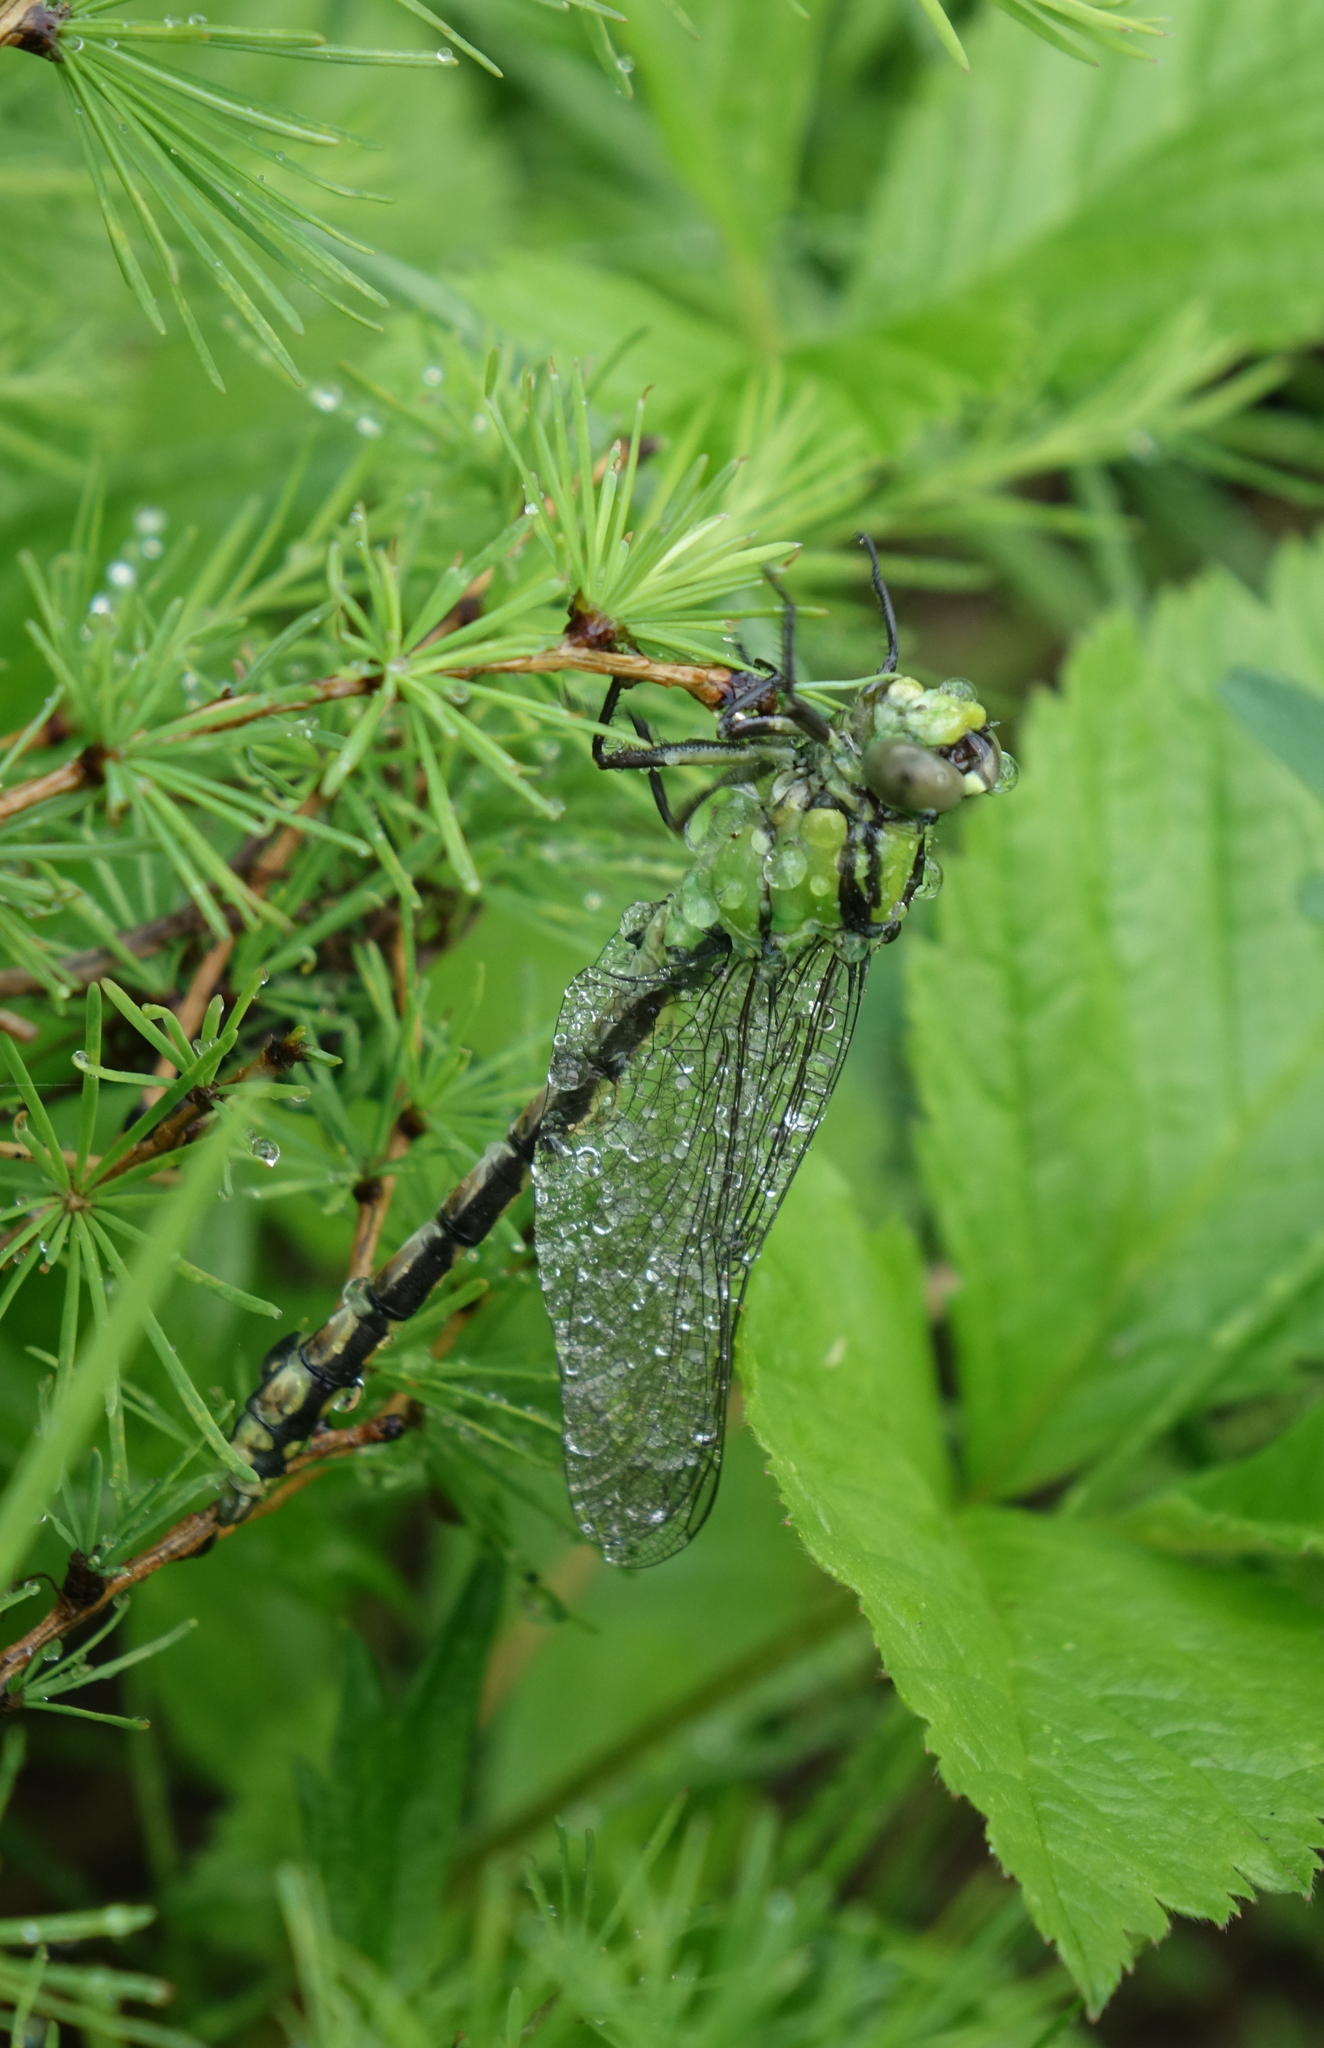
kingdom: Animalia
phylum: Arthropoda
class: Insecta
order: Odonata
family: Gomphidae
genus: Ophiogomphus
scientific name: Ophiogomphus obscurus
